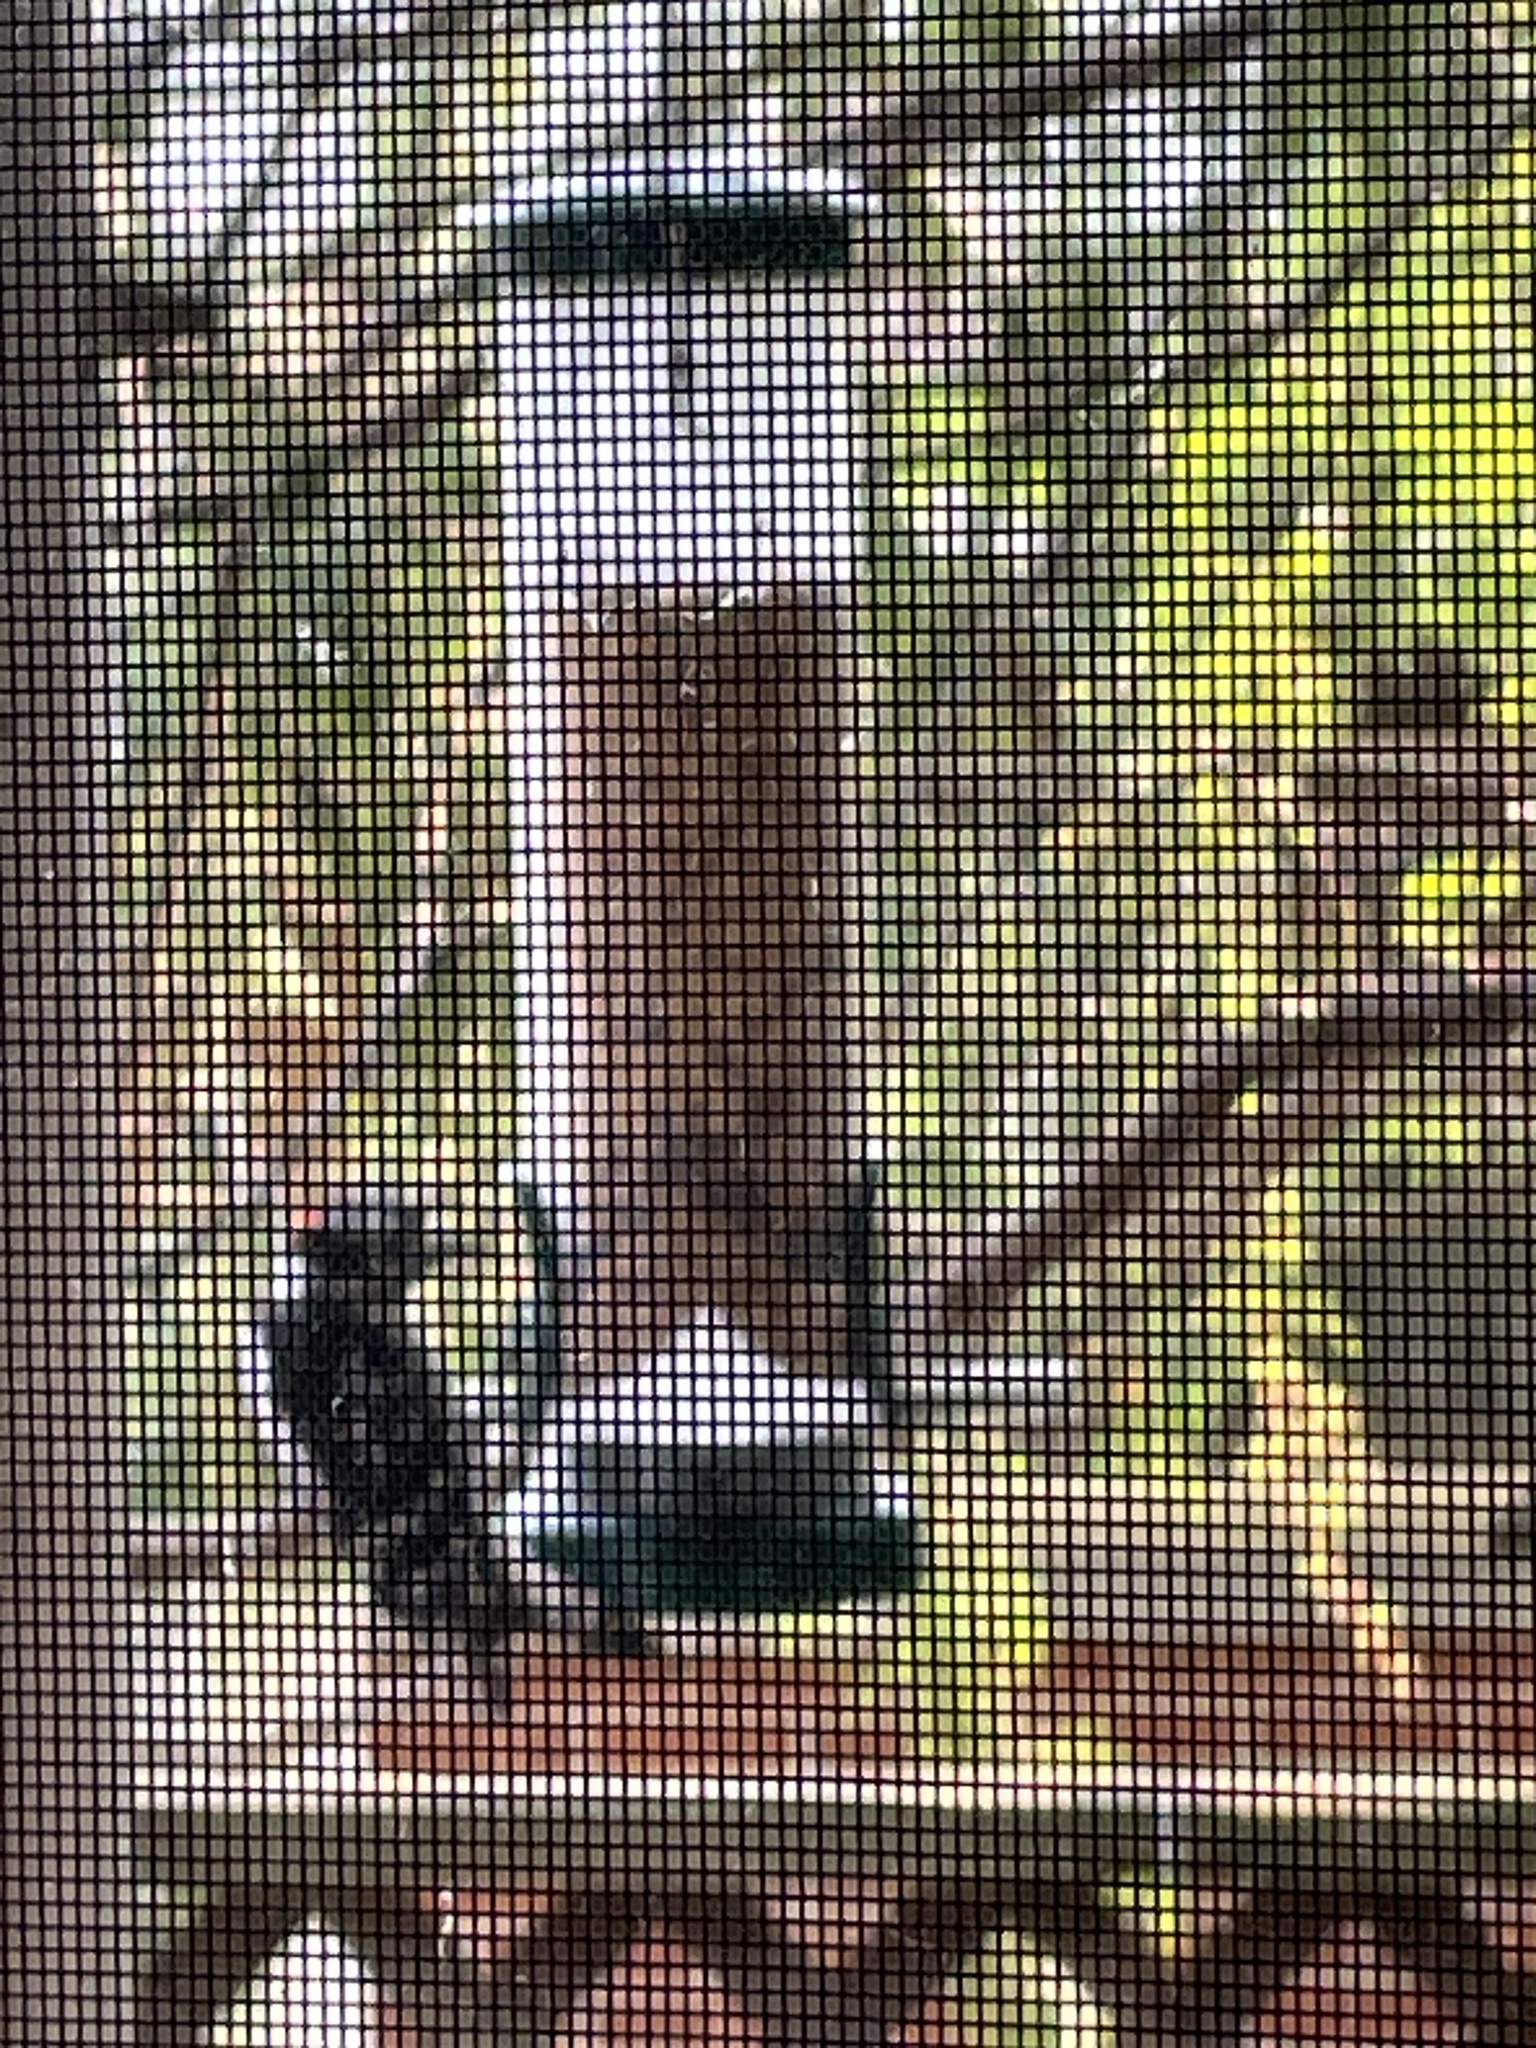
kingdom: Animalia
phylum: Chordata
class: Aves
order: Piciformes
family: Picidae
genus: Dryobates
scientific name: Dryobates pubescens
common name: Downy woodpecker
